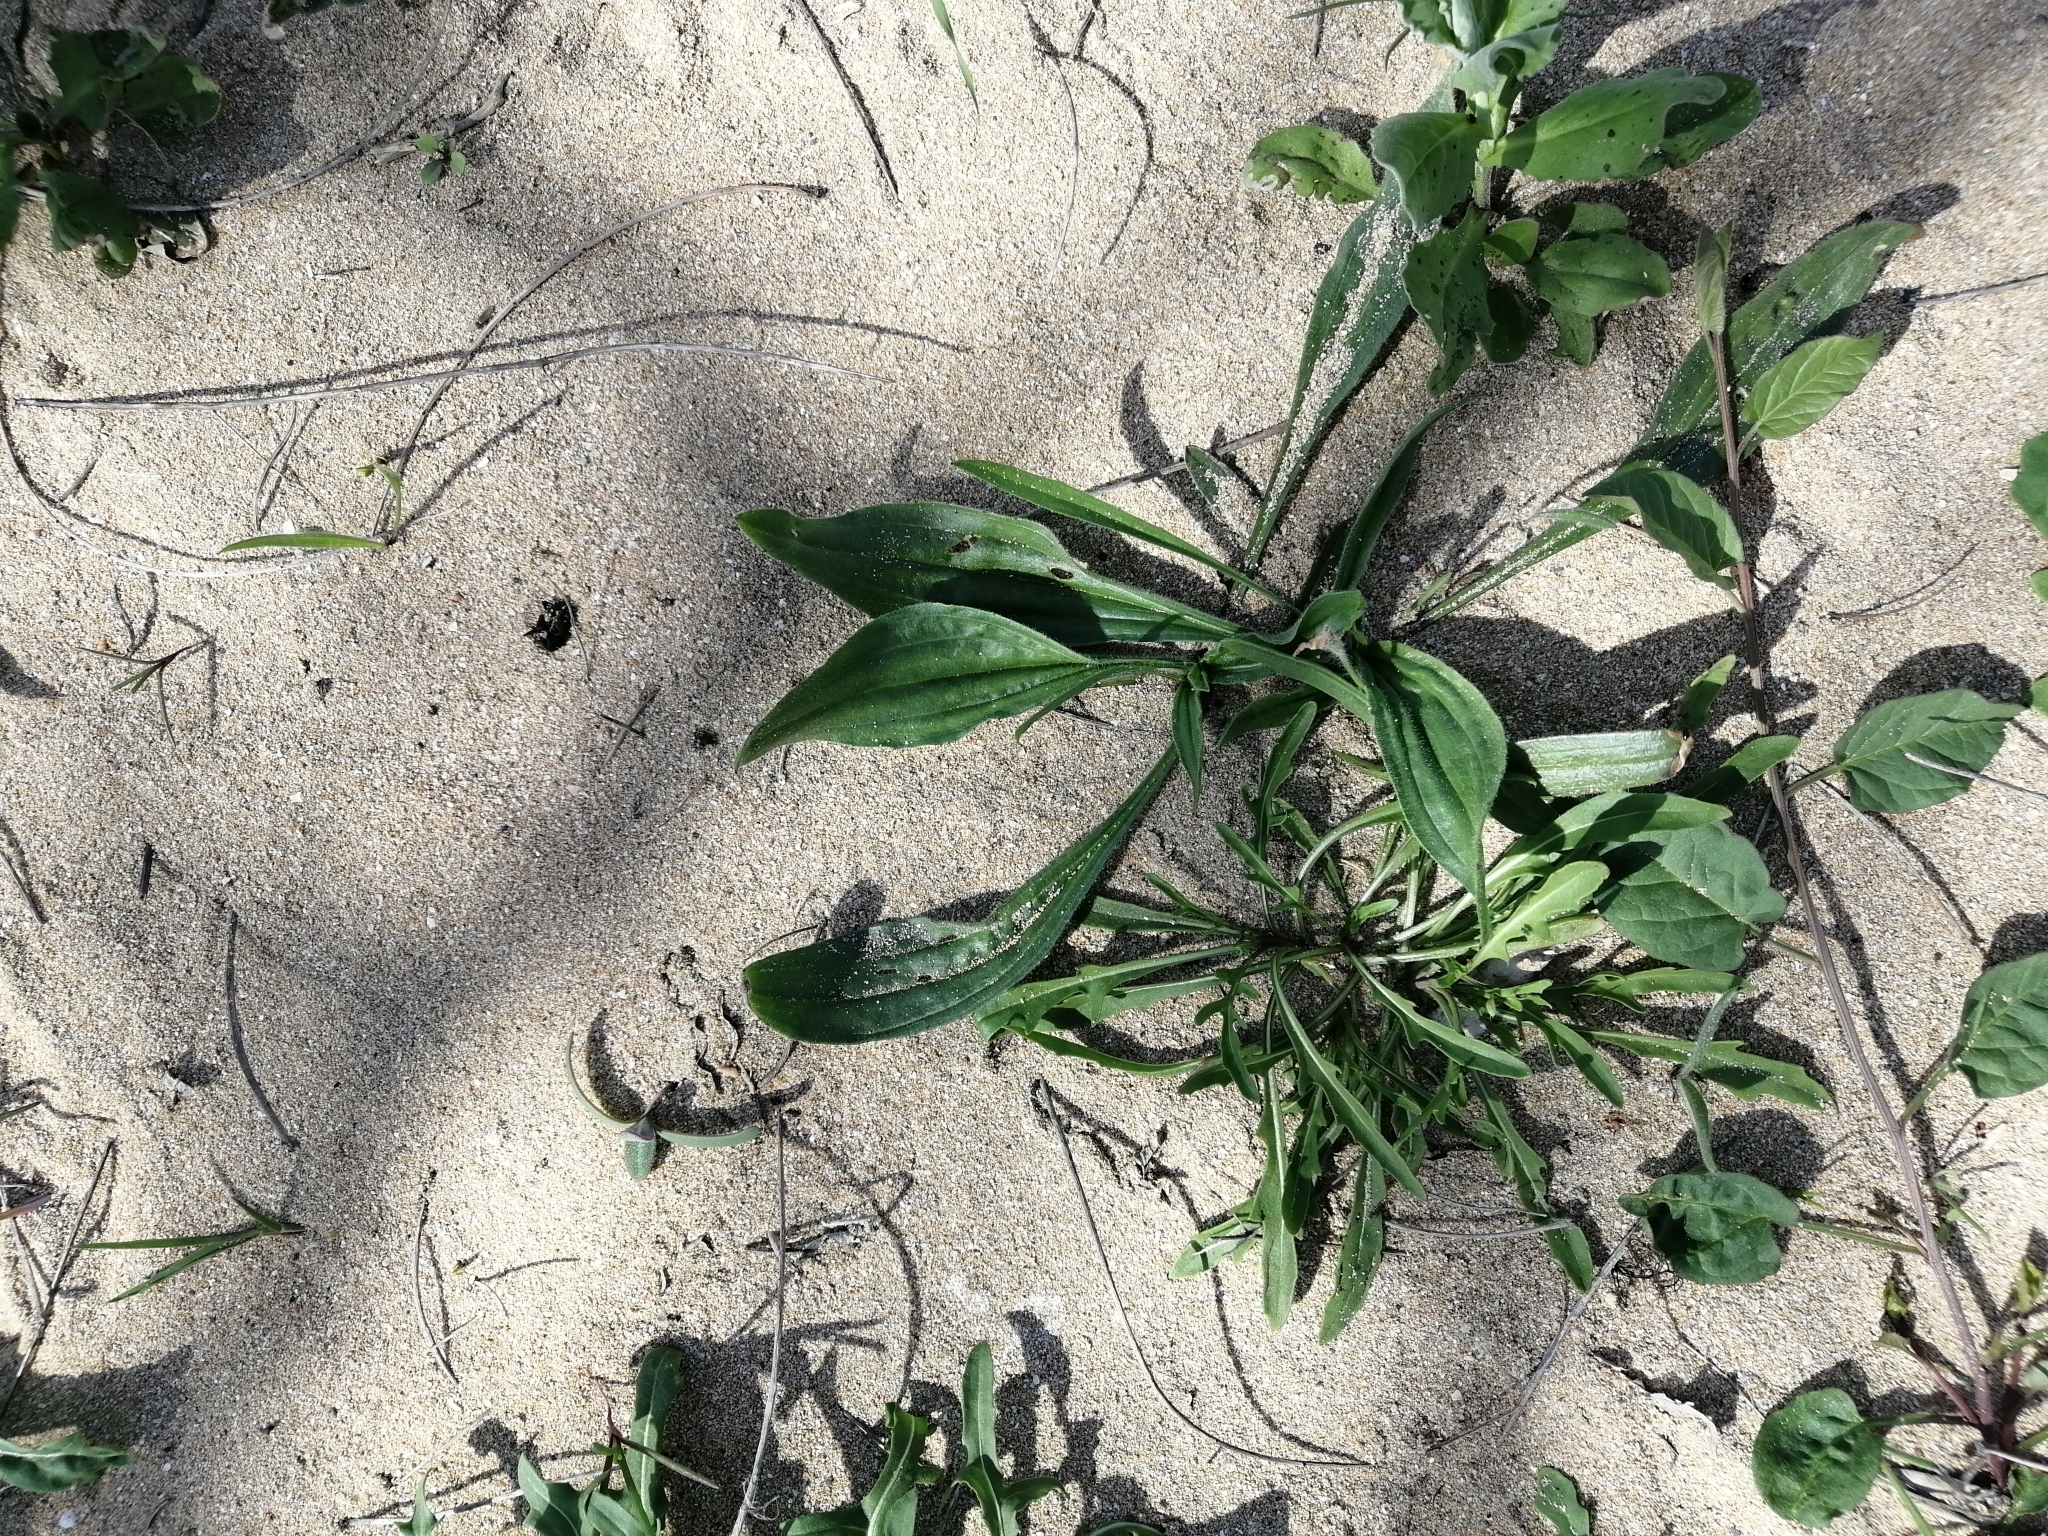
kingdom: Plantae
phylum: Tracheophyta
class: Magnoliopsida
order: Lamiales
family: Plantaginaceae
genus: Plantago
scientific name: Plantago lanceolata
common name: Ribwort plantain
